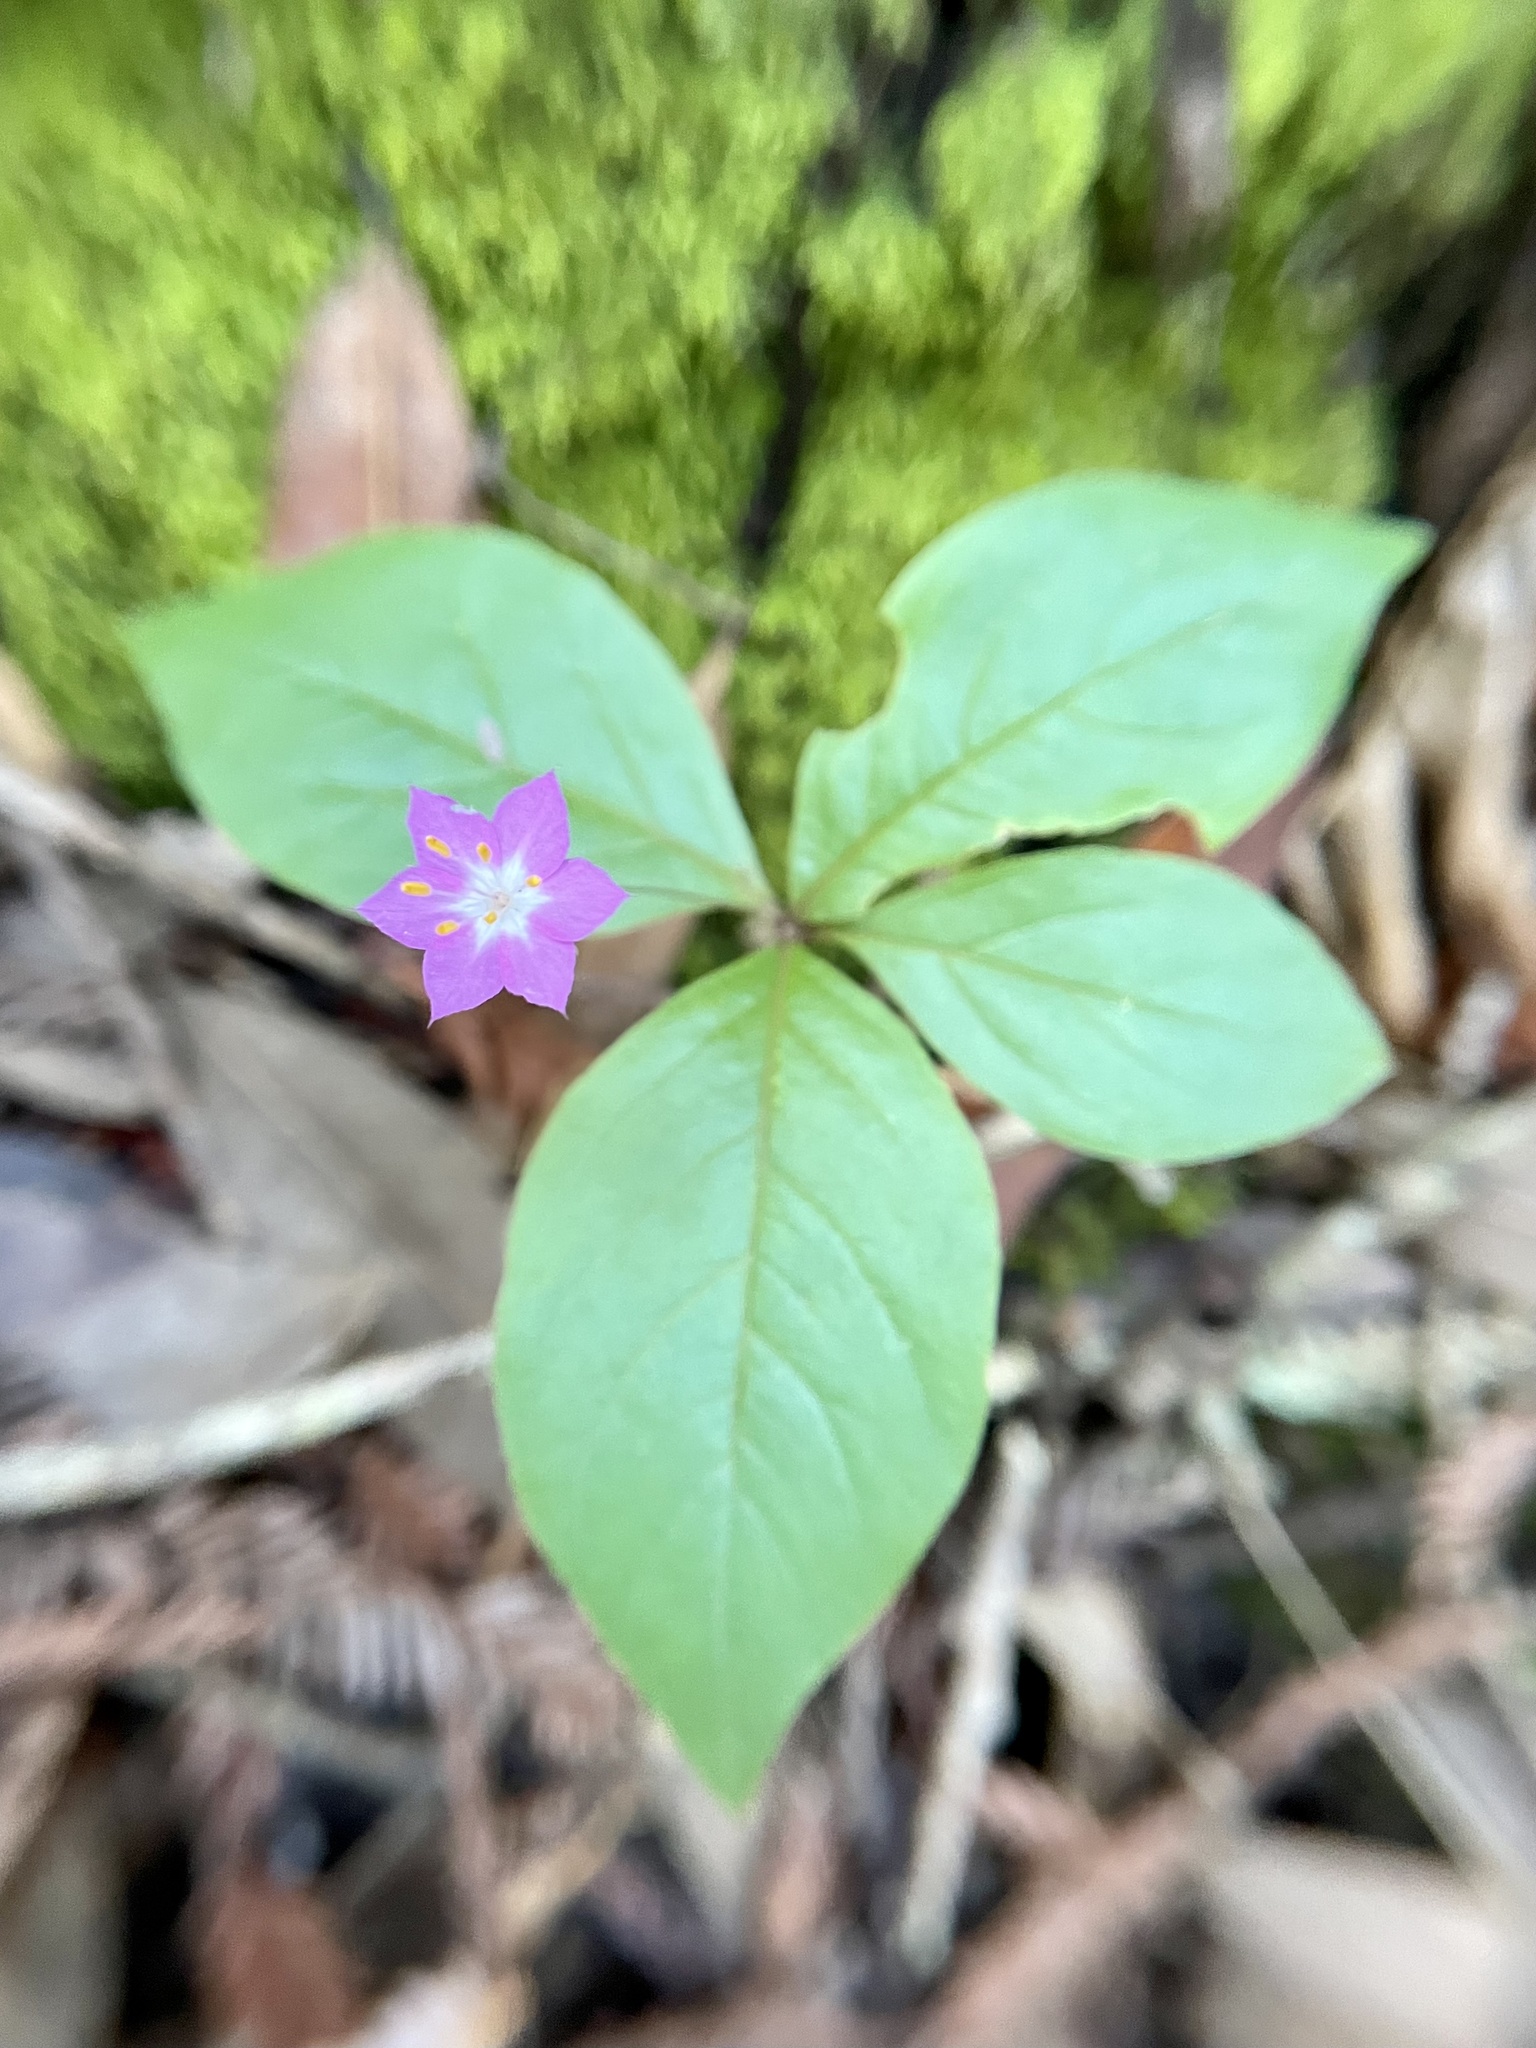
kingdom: Plantae
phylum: Tracheophyta
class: Magnoliopsida
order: Ericales
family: Primulaceae
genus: Lysimachia
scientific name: Lysimachia latifolia
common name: Pacific starflower
